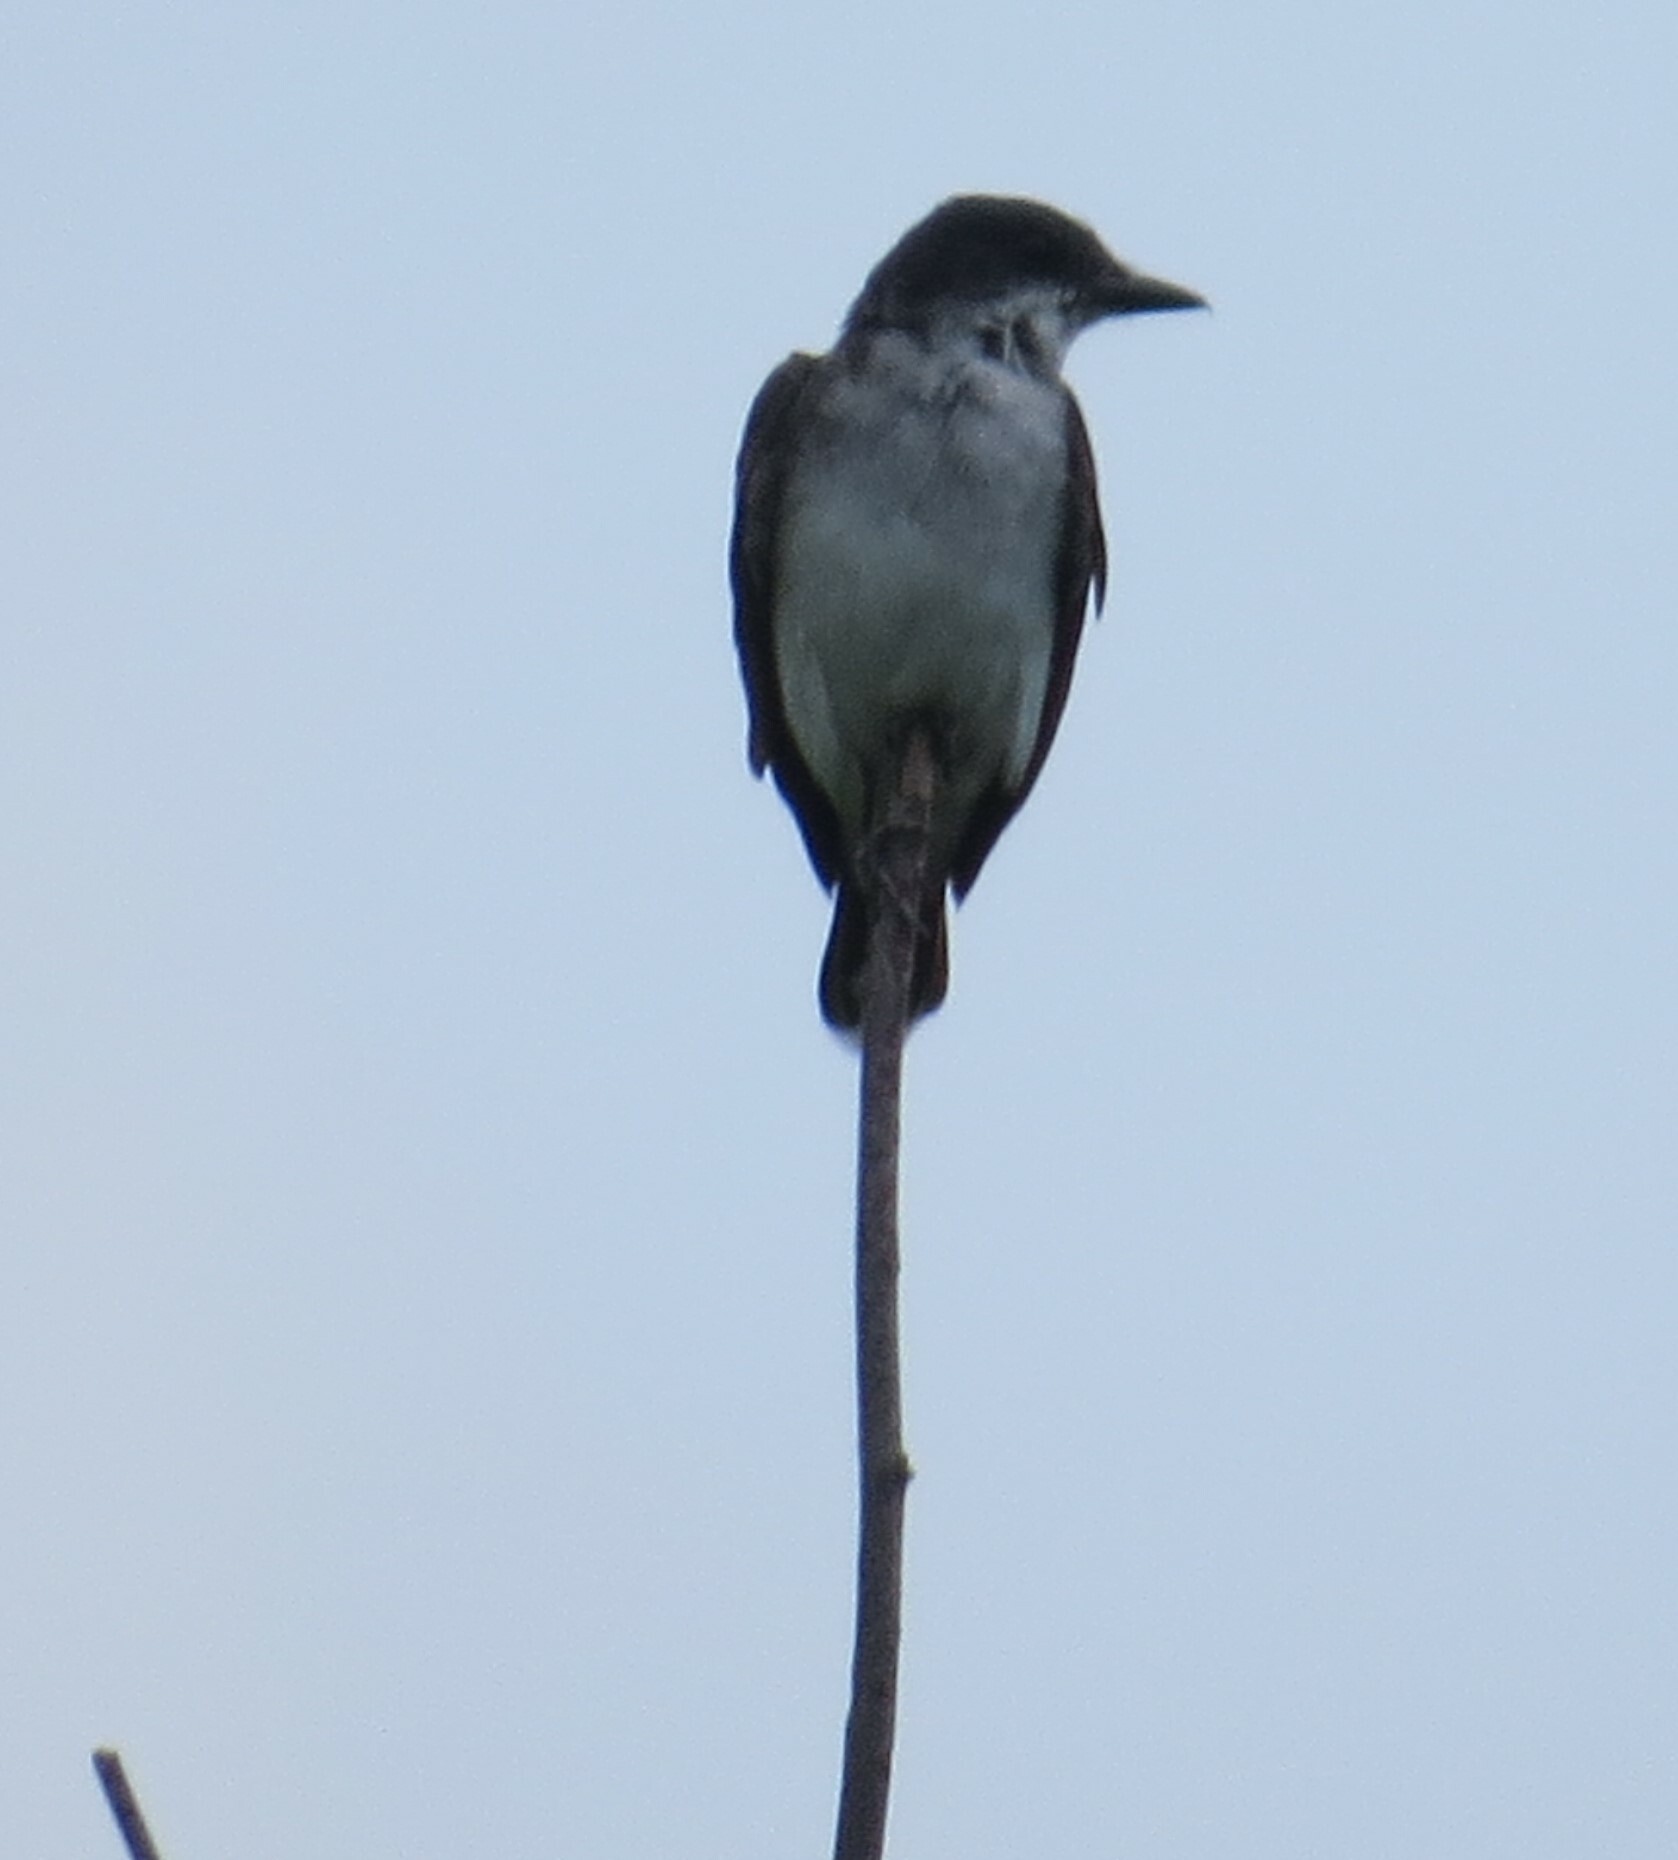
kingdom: Animalia
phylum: Chordata
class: Aves
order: Passeriformes
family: Tyrannidae
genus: Tyrannus
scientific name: Tyrannus tyrannus
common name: Eastern kingbird
